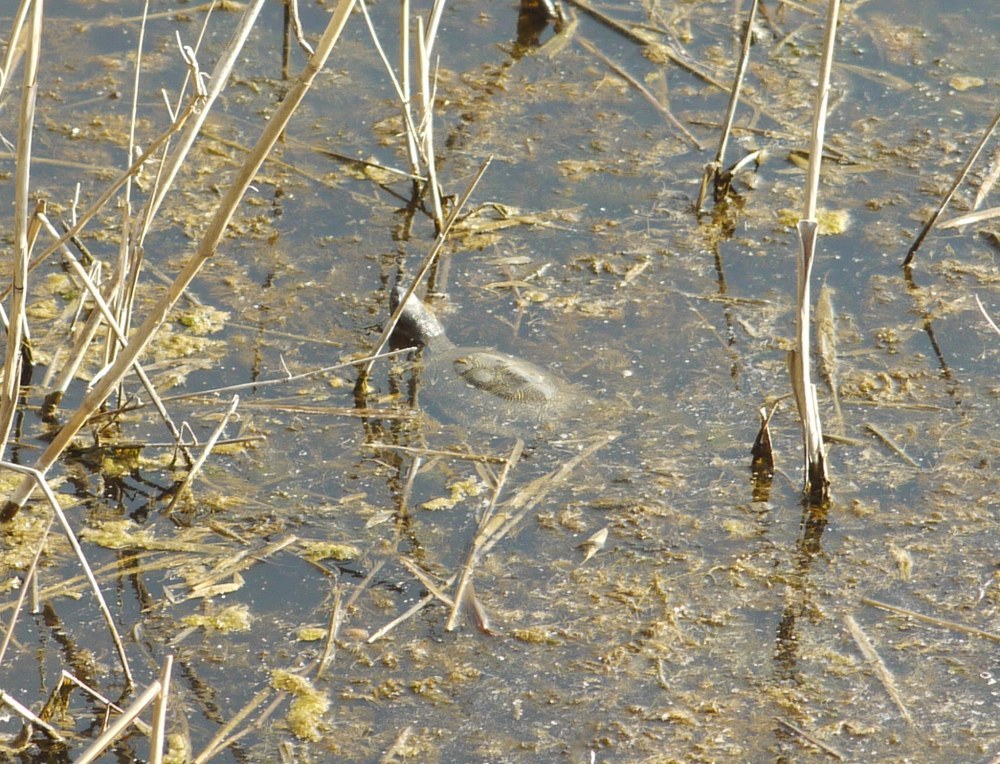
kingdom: Animalia
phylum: Chordata
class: Testudines
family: Emydidae
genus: Emys
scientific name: Emys orbicularis
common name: European pond turtle
